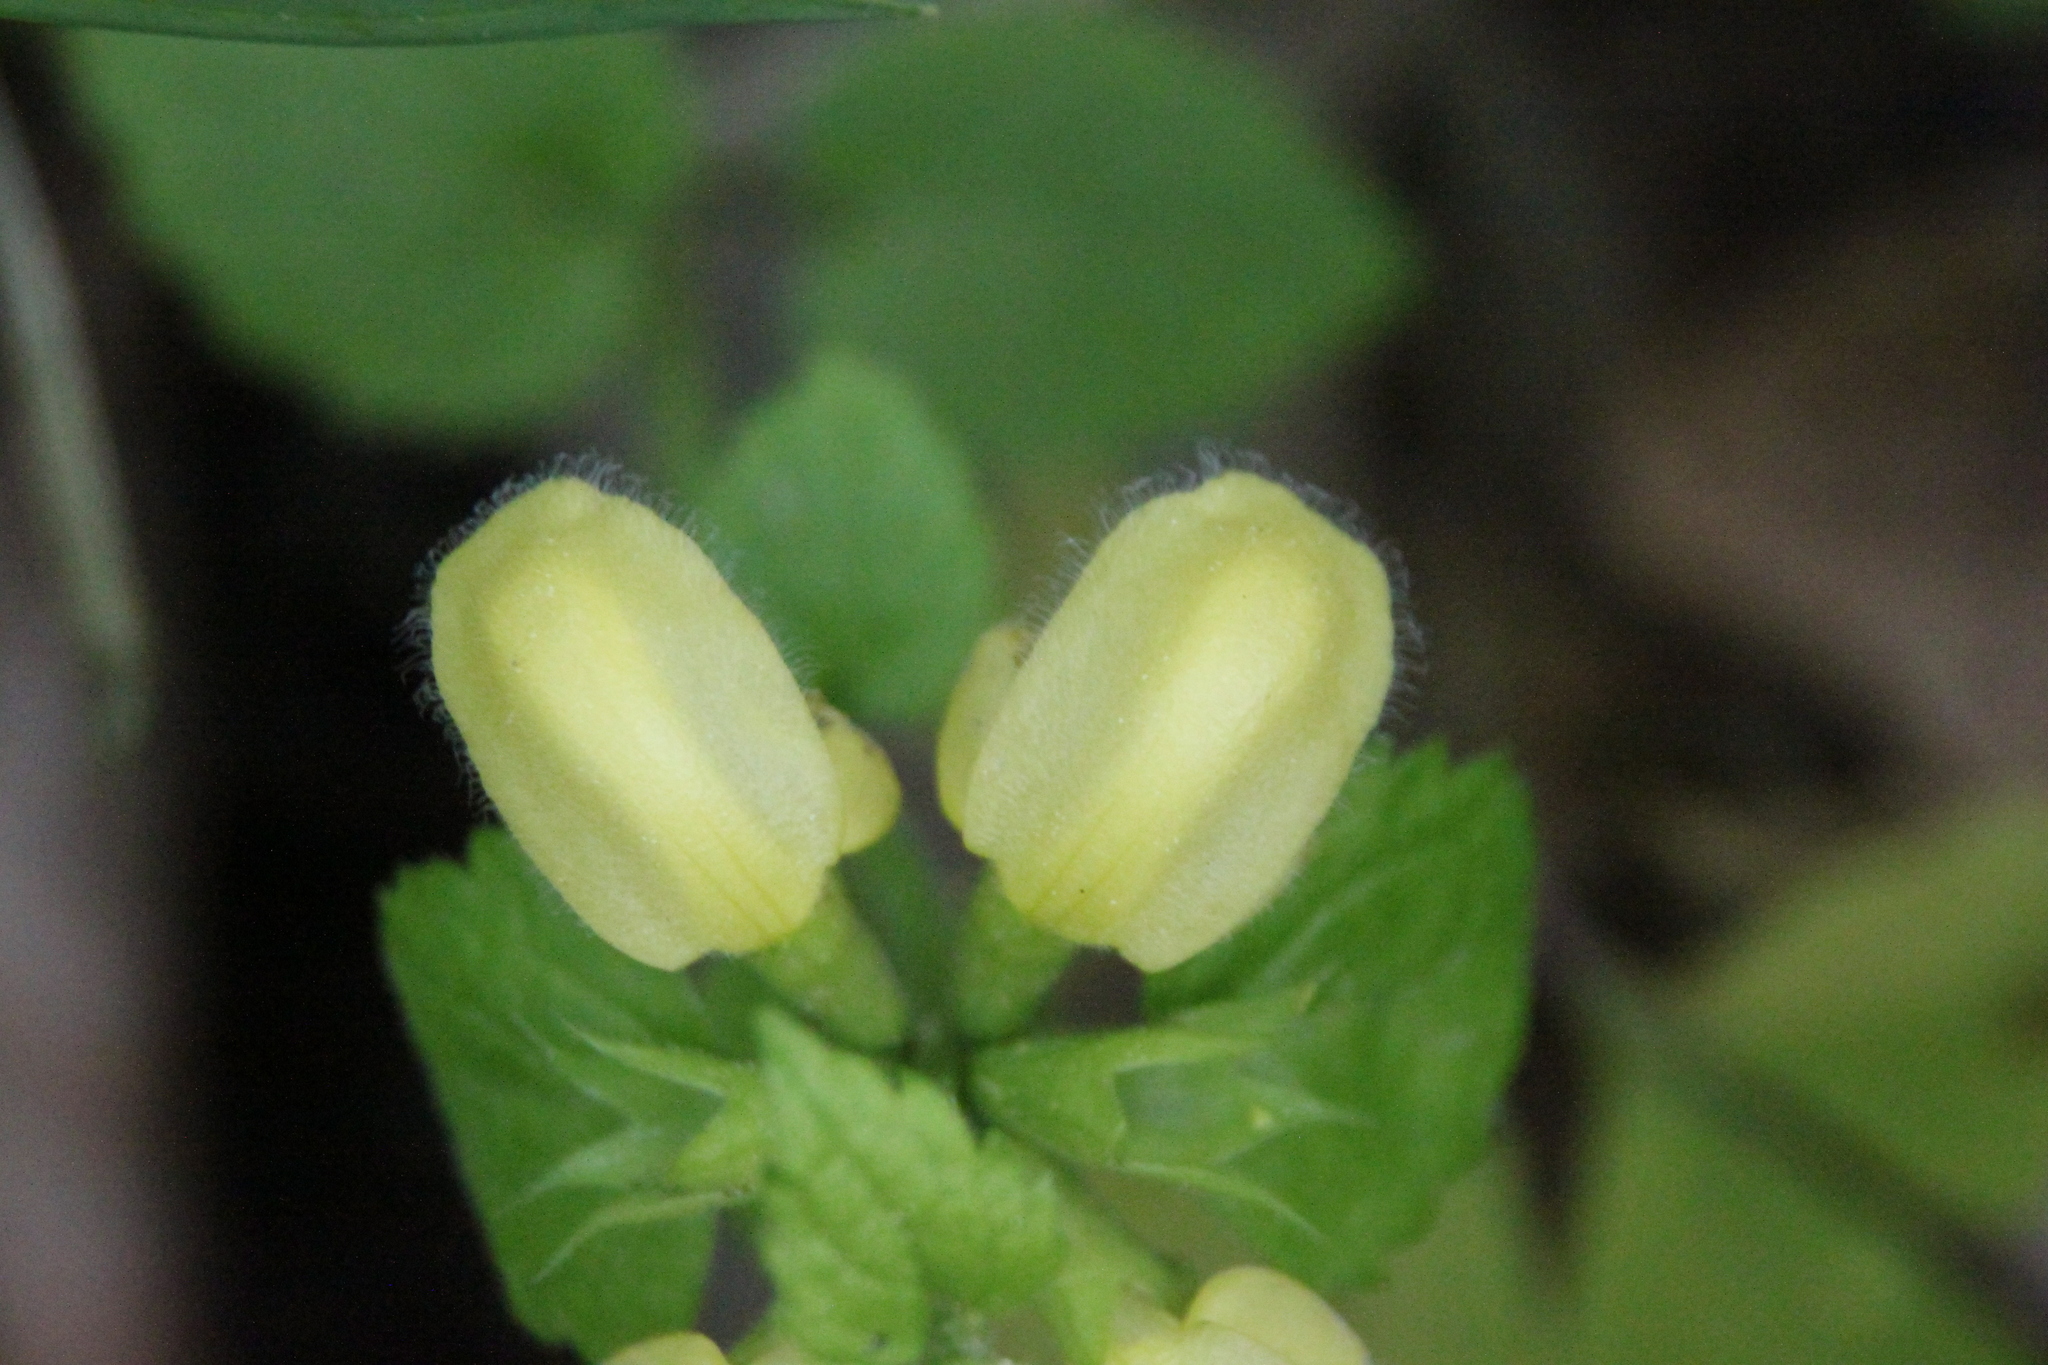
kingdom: Plantae
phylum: Tracheophyta
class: Magnoliopsida
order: Lamiales
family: Lamiaceae
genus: Lamium
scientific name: Lamium galeobdolon
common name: Yellow archangel
